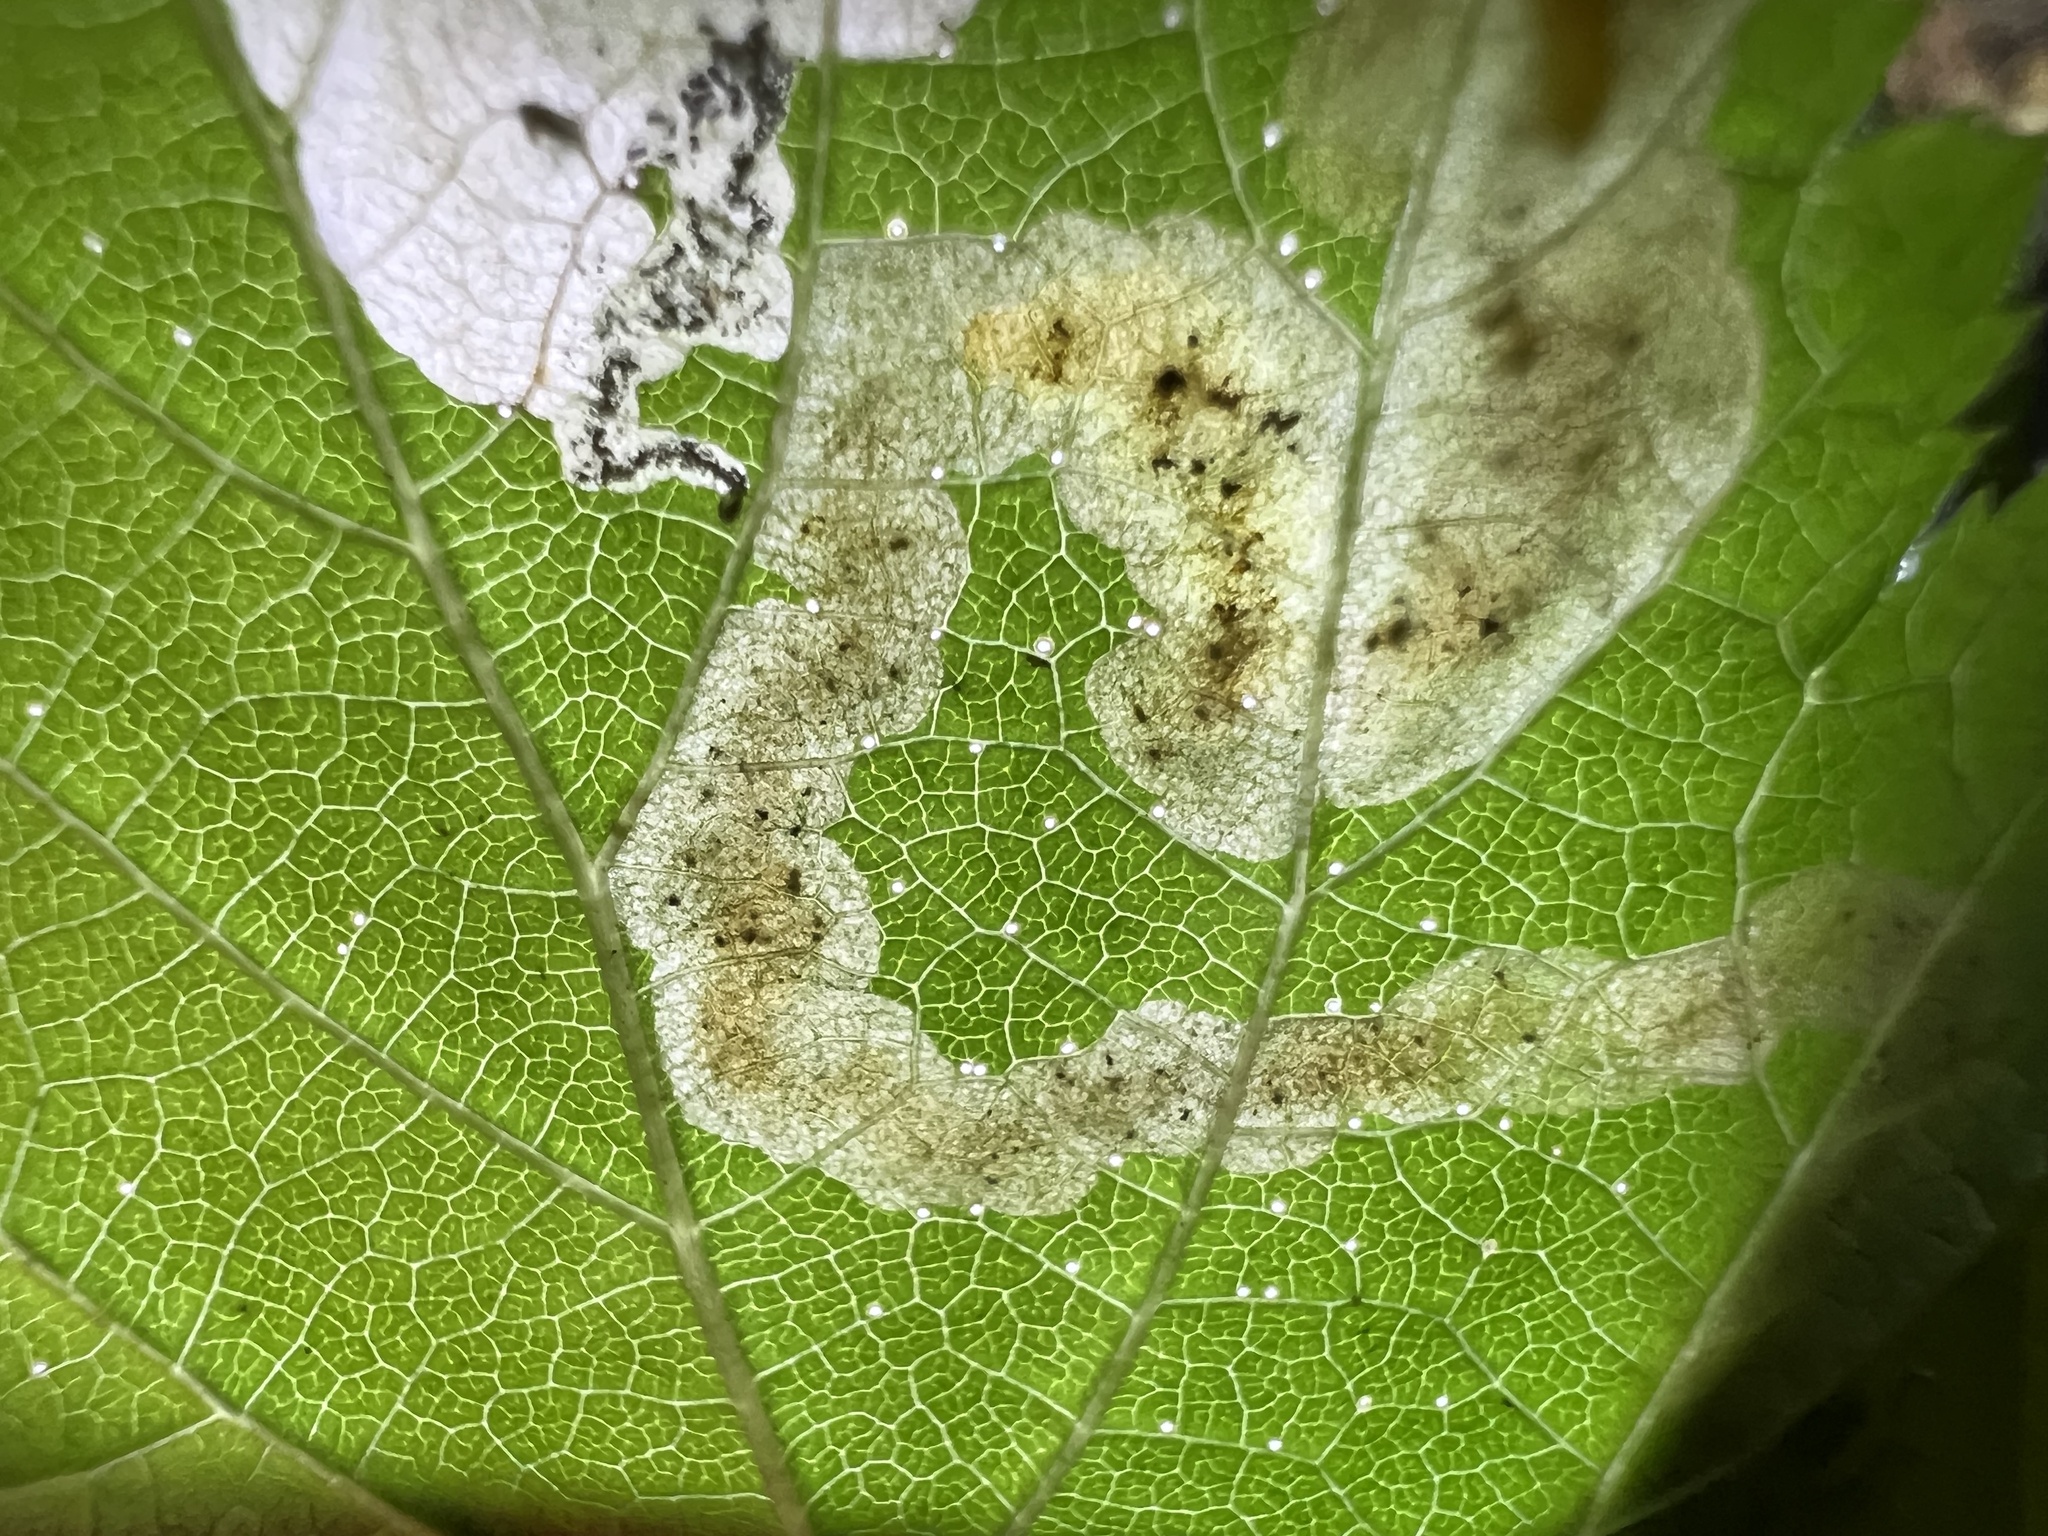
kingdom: Animalia
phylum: Arthropoda
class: Insecta
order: Diptera
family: Agromyzidae
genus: Agromyza
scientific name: Agromyza vockerothi
